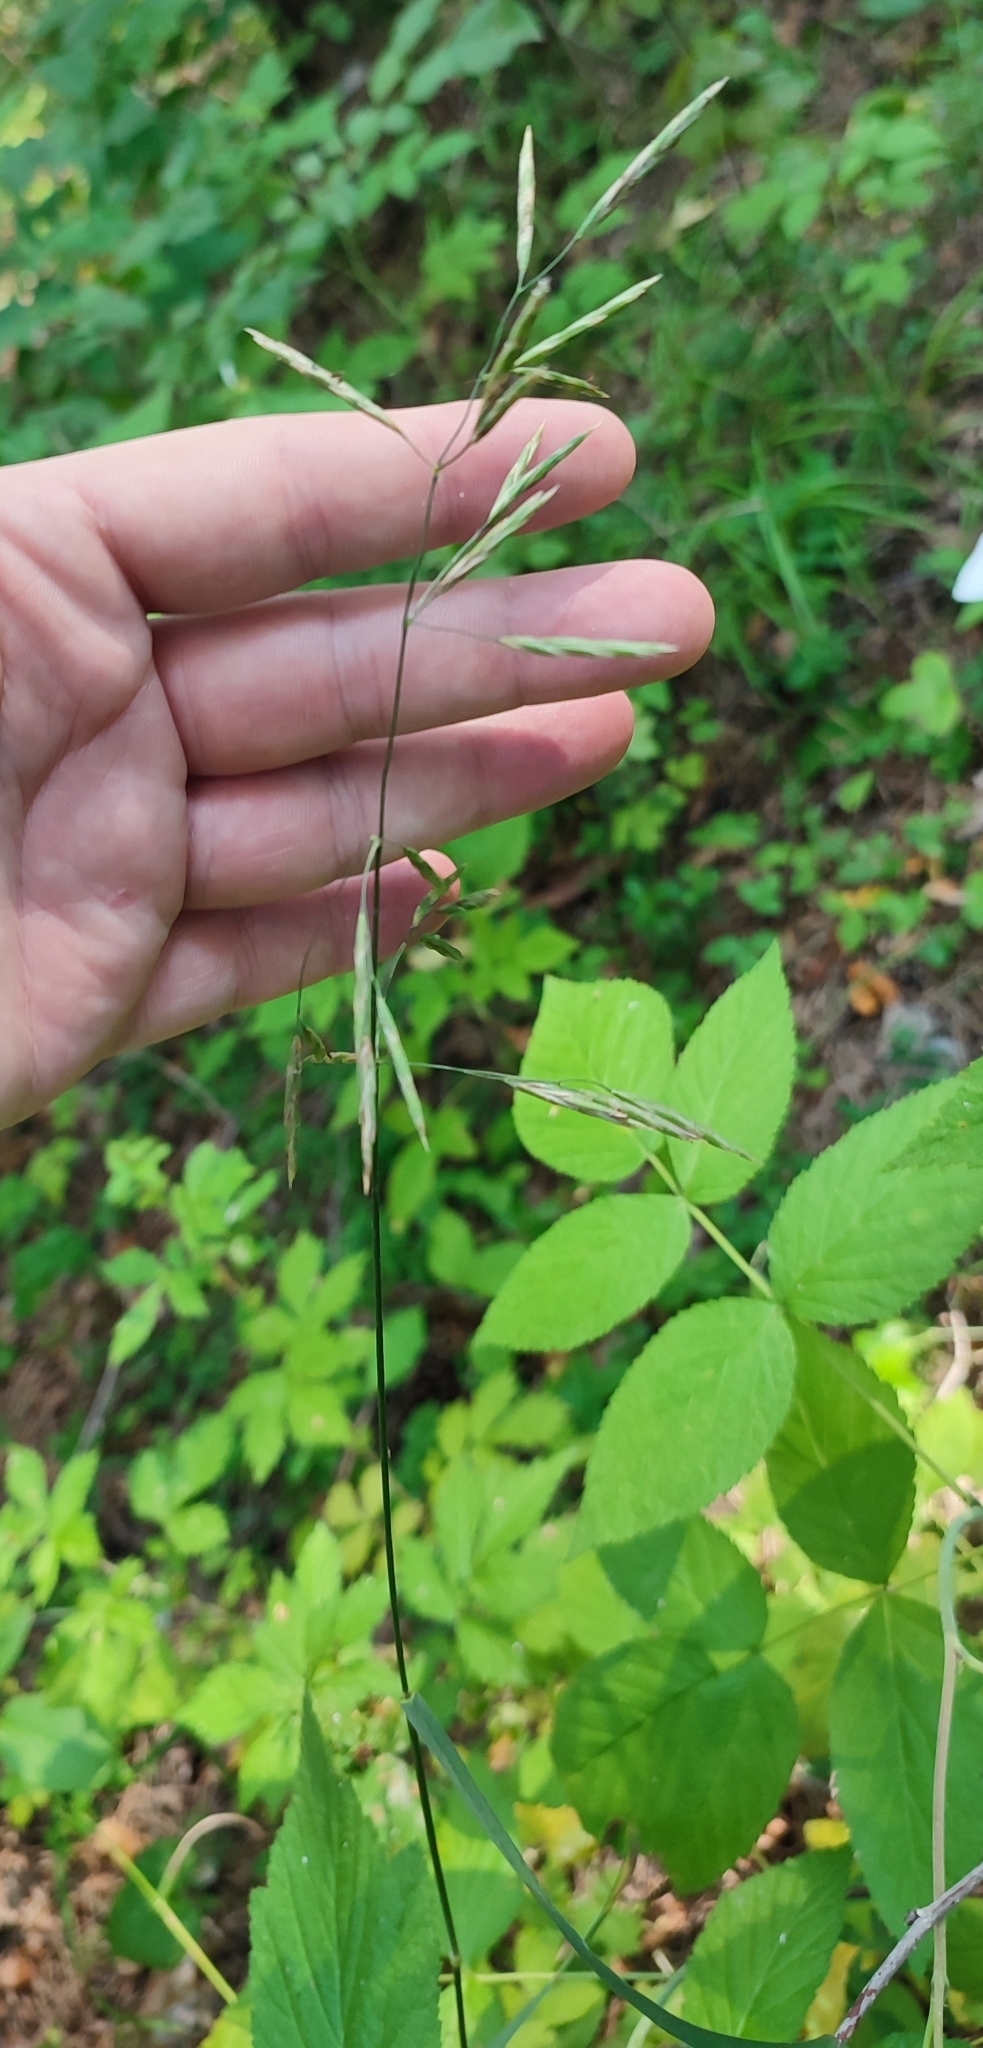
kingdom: Plantae
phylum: Tracheophyta
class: Liliopsida
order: Poales
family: Poaceae
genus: Bromus
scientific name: Bromus inermis
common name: Smooth brome
